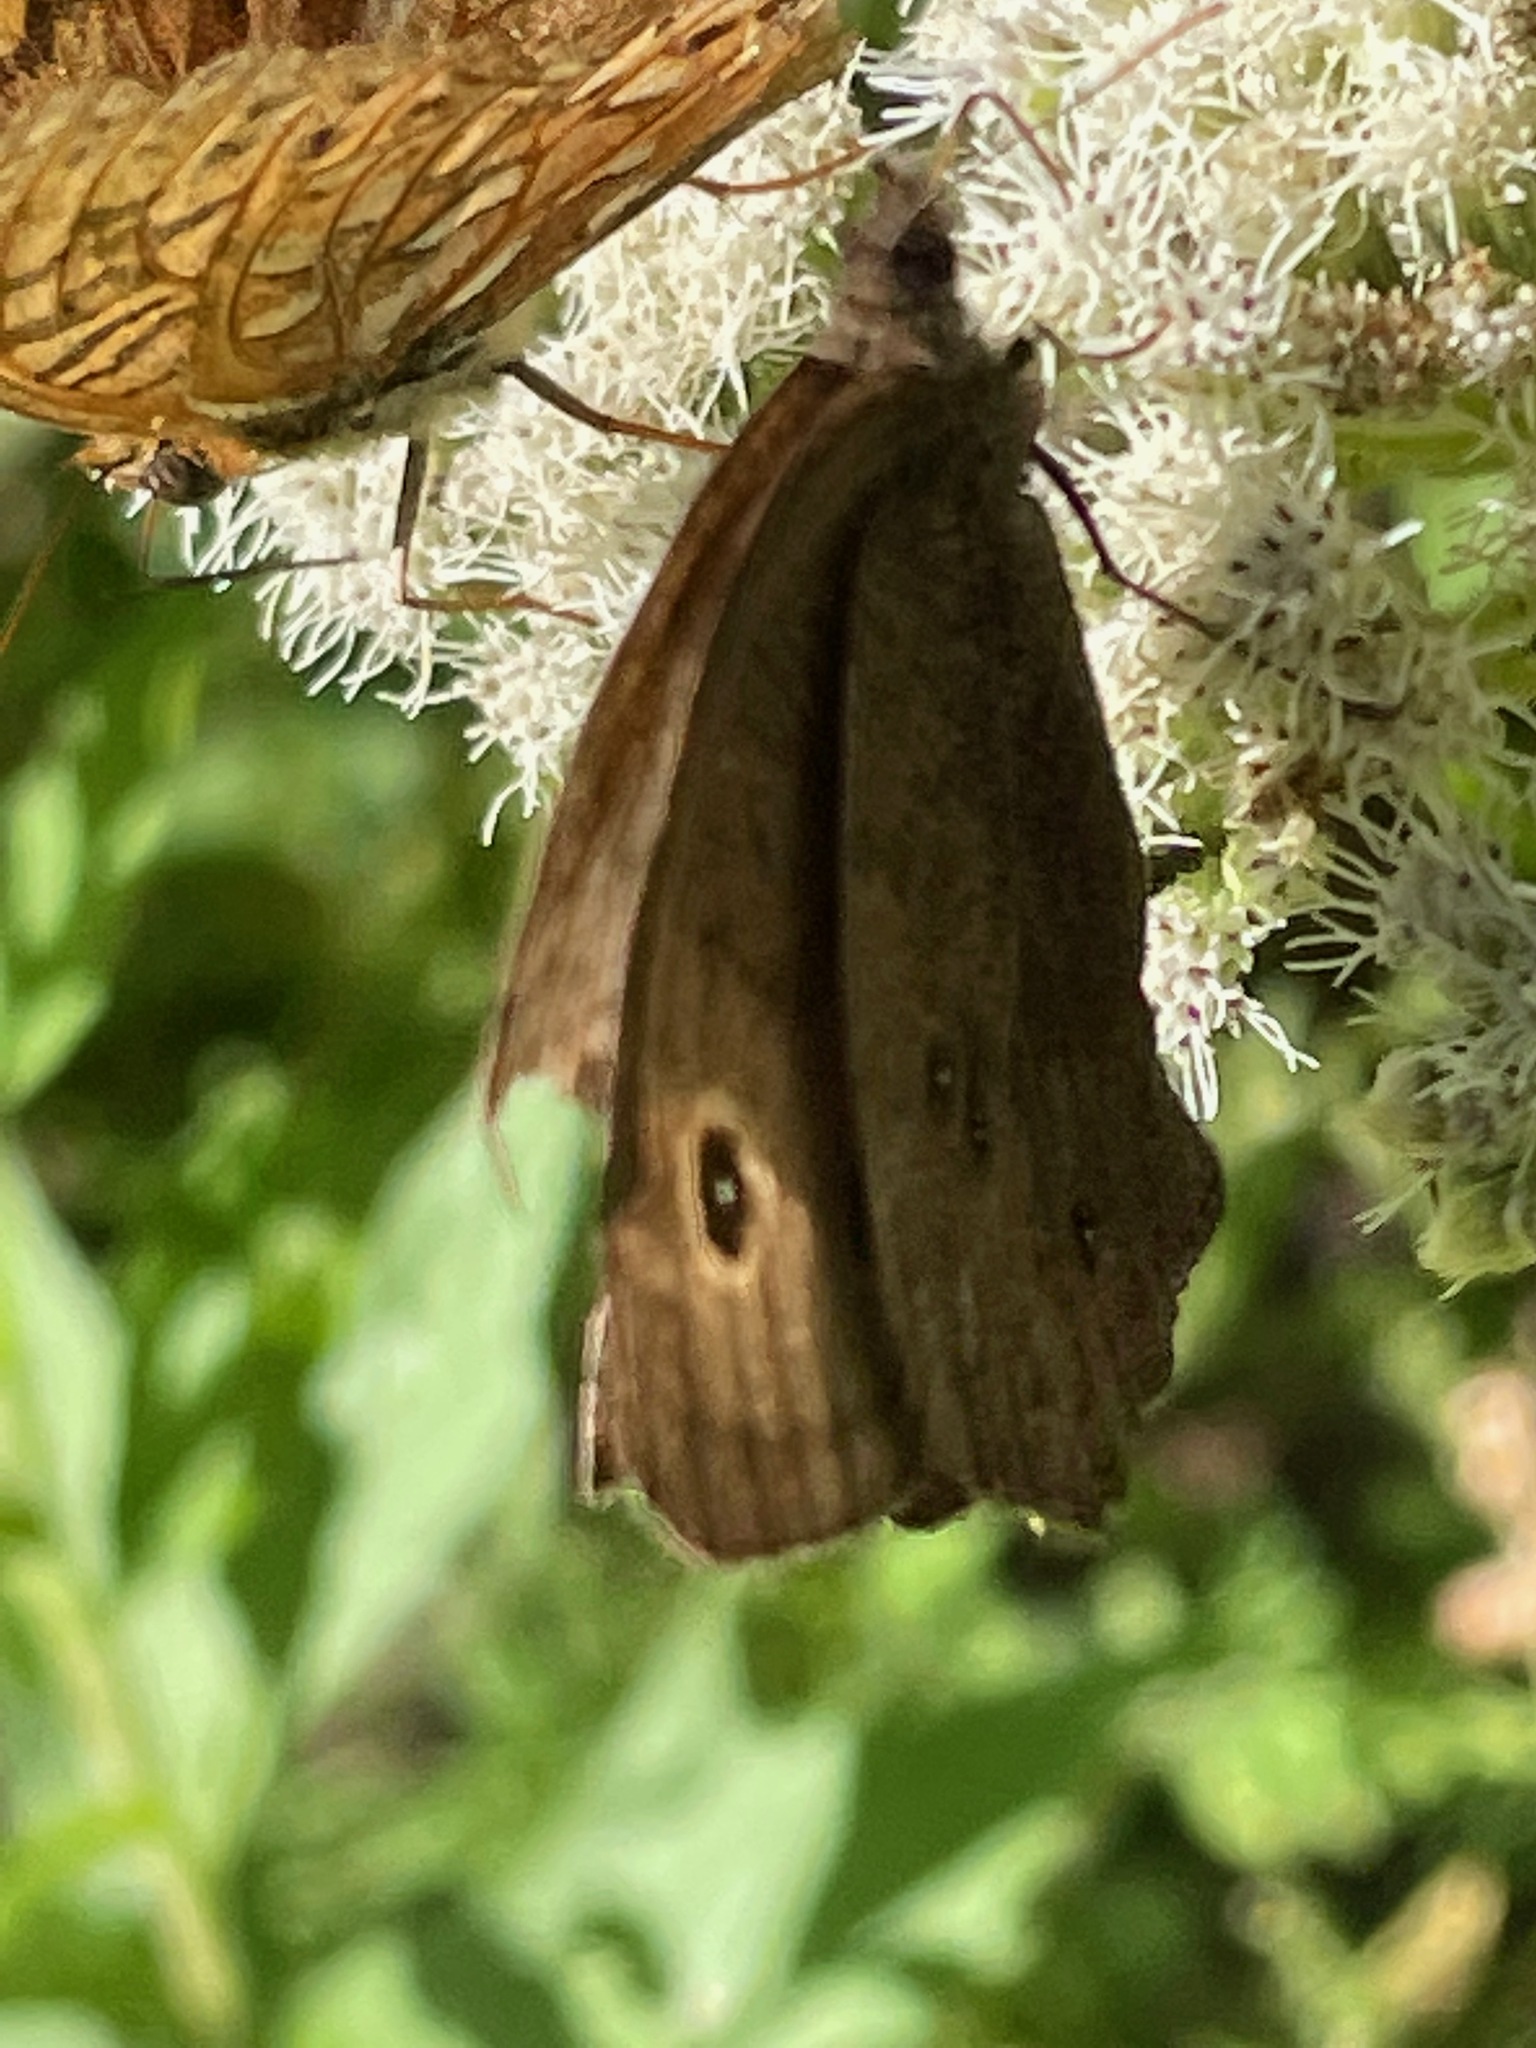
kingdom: Animalia
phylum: Arthropoda
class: Insecta
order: Lepidoptera
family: Nymphalidae
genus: Cercyonis
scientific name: Cercyonis pegala
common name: Common wood-nymph
